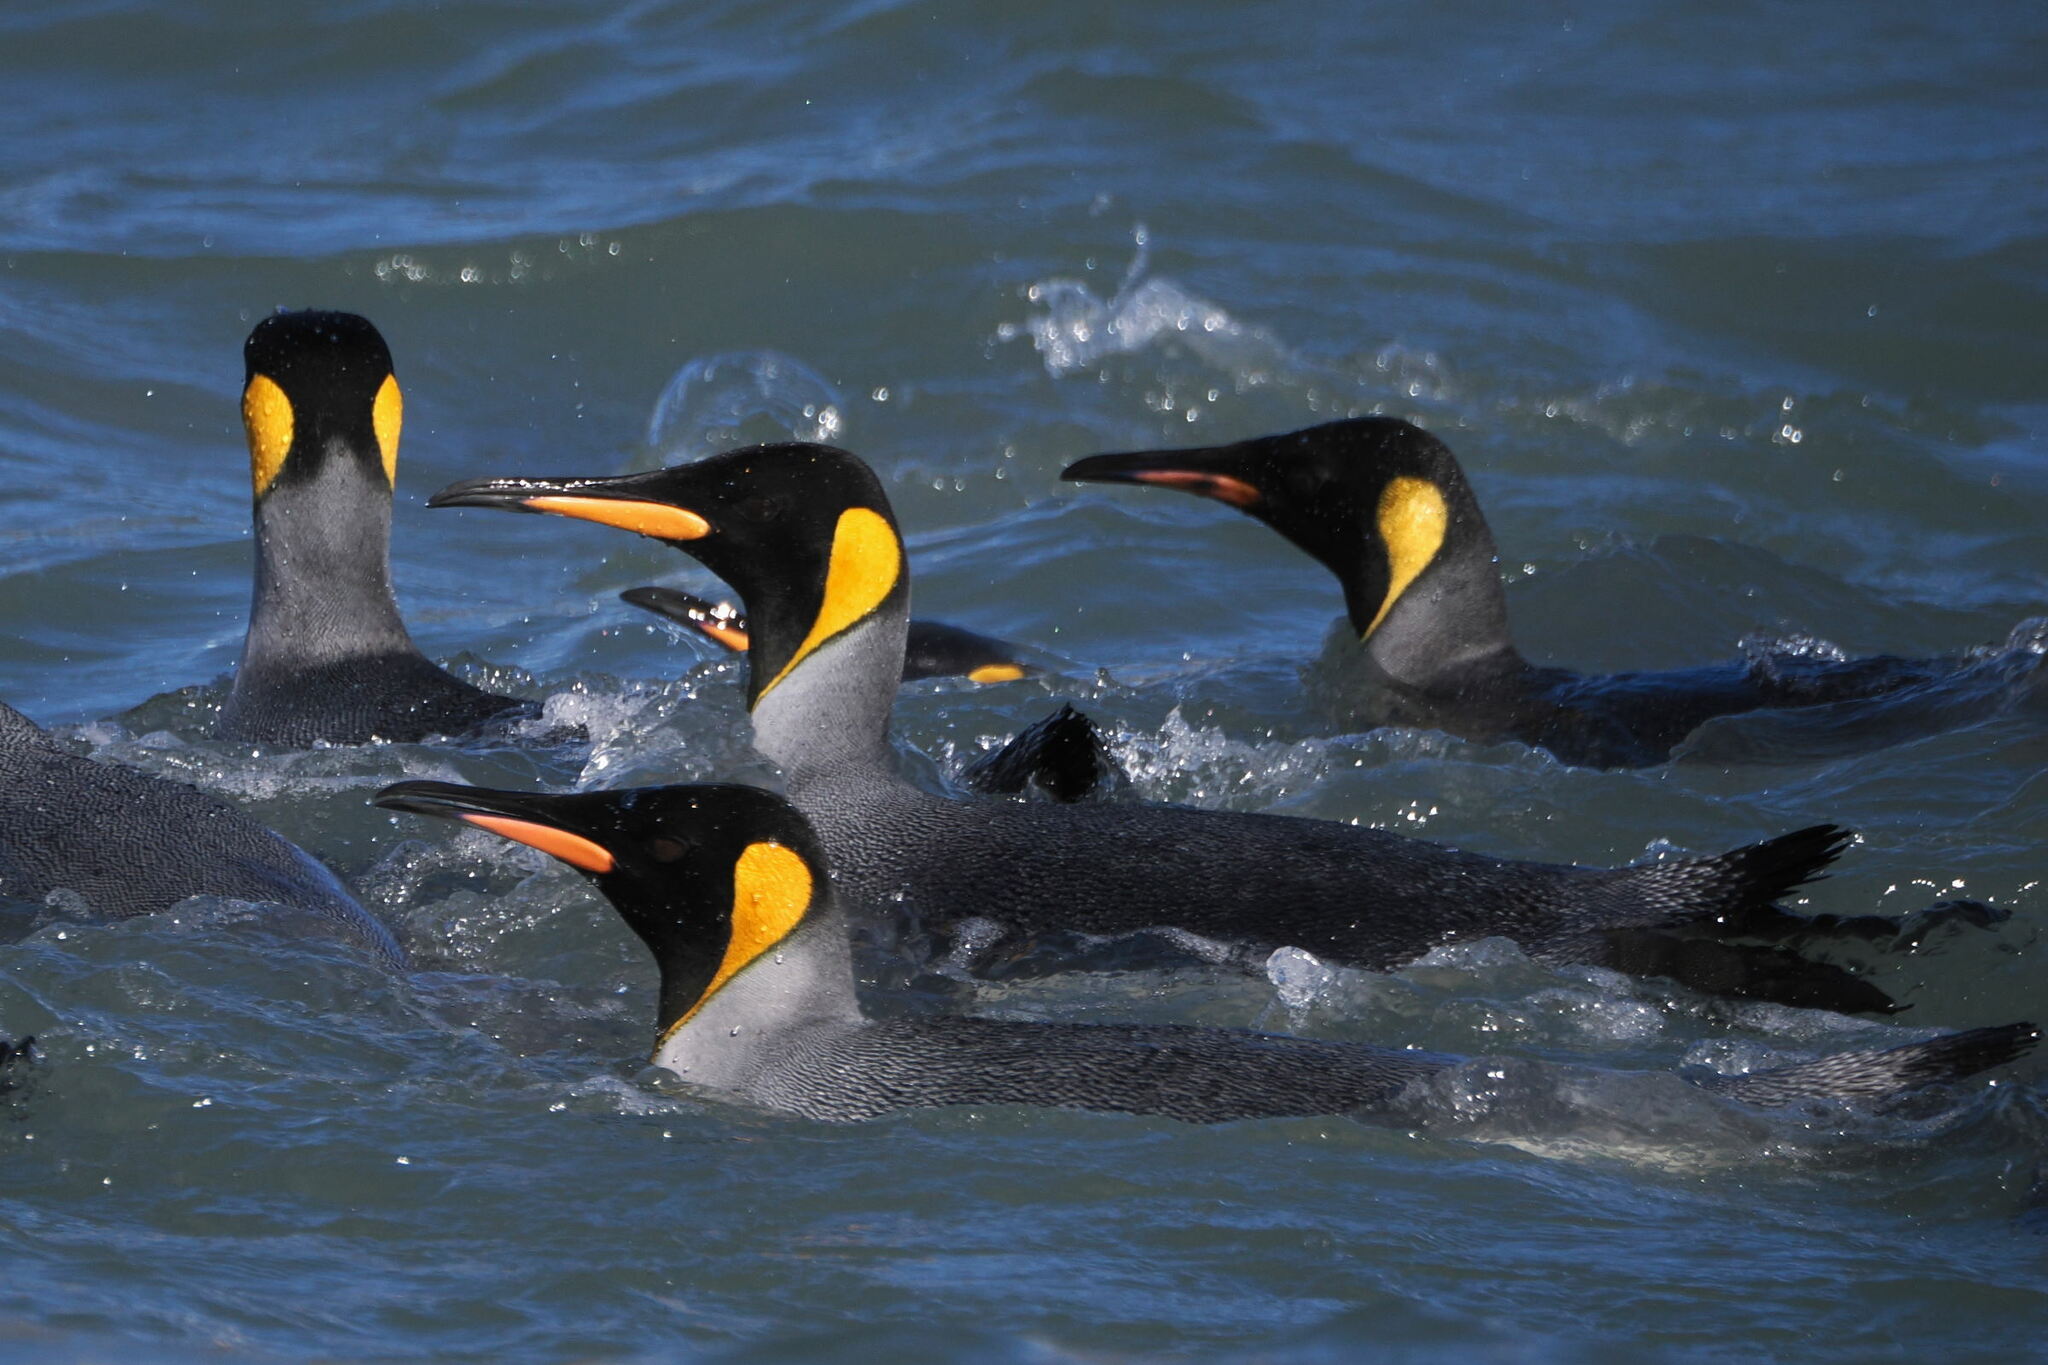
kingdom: Animalia
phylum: Chordata
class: Aves
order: Sphenisciformes
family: Spheniscidae
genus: Aptenodytes
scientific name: Aptenodytes patagonicus
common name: King penguin
